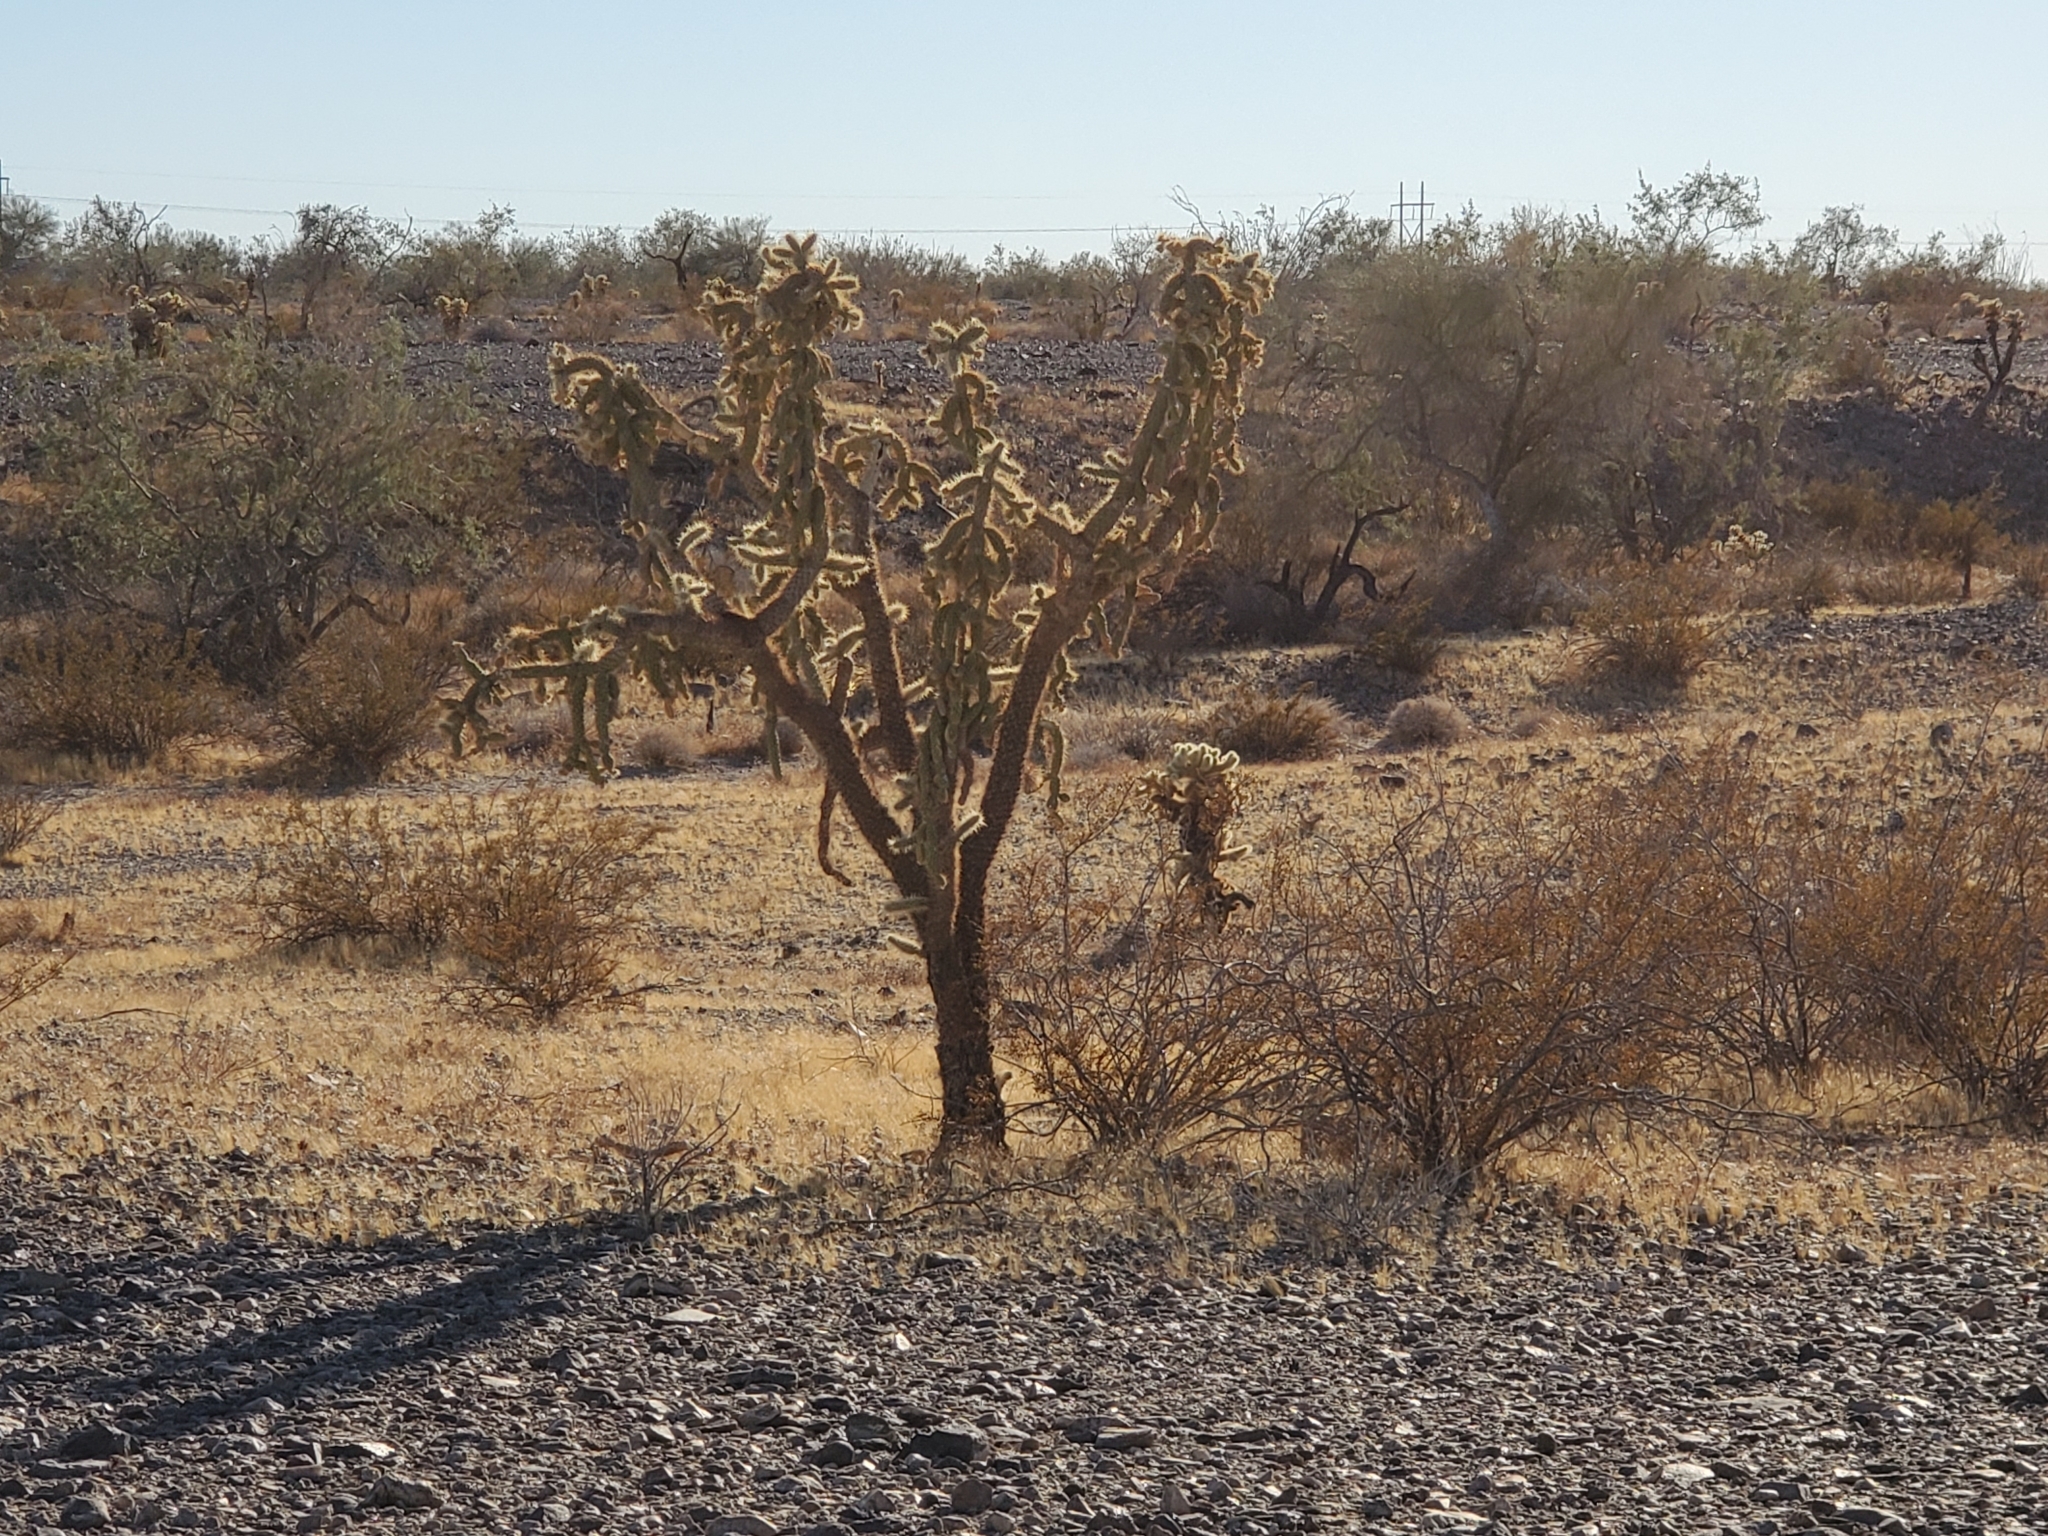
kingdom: Plantae
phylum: Tracheophyta
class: Magnoliopsida
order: Caryophyllales
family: Cactaceae
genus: Cylindropuntia
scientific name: Cylindropuntia munzii
